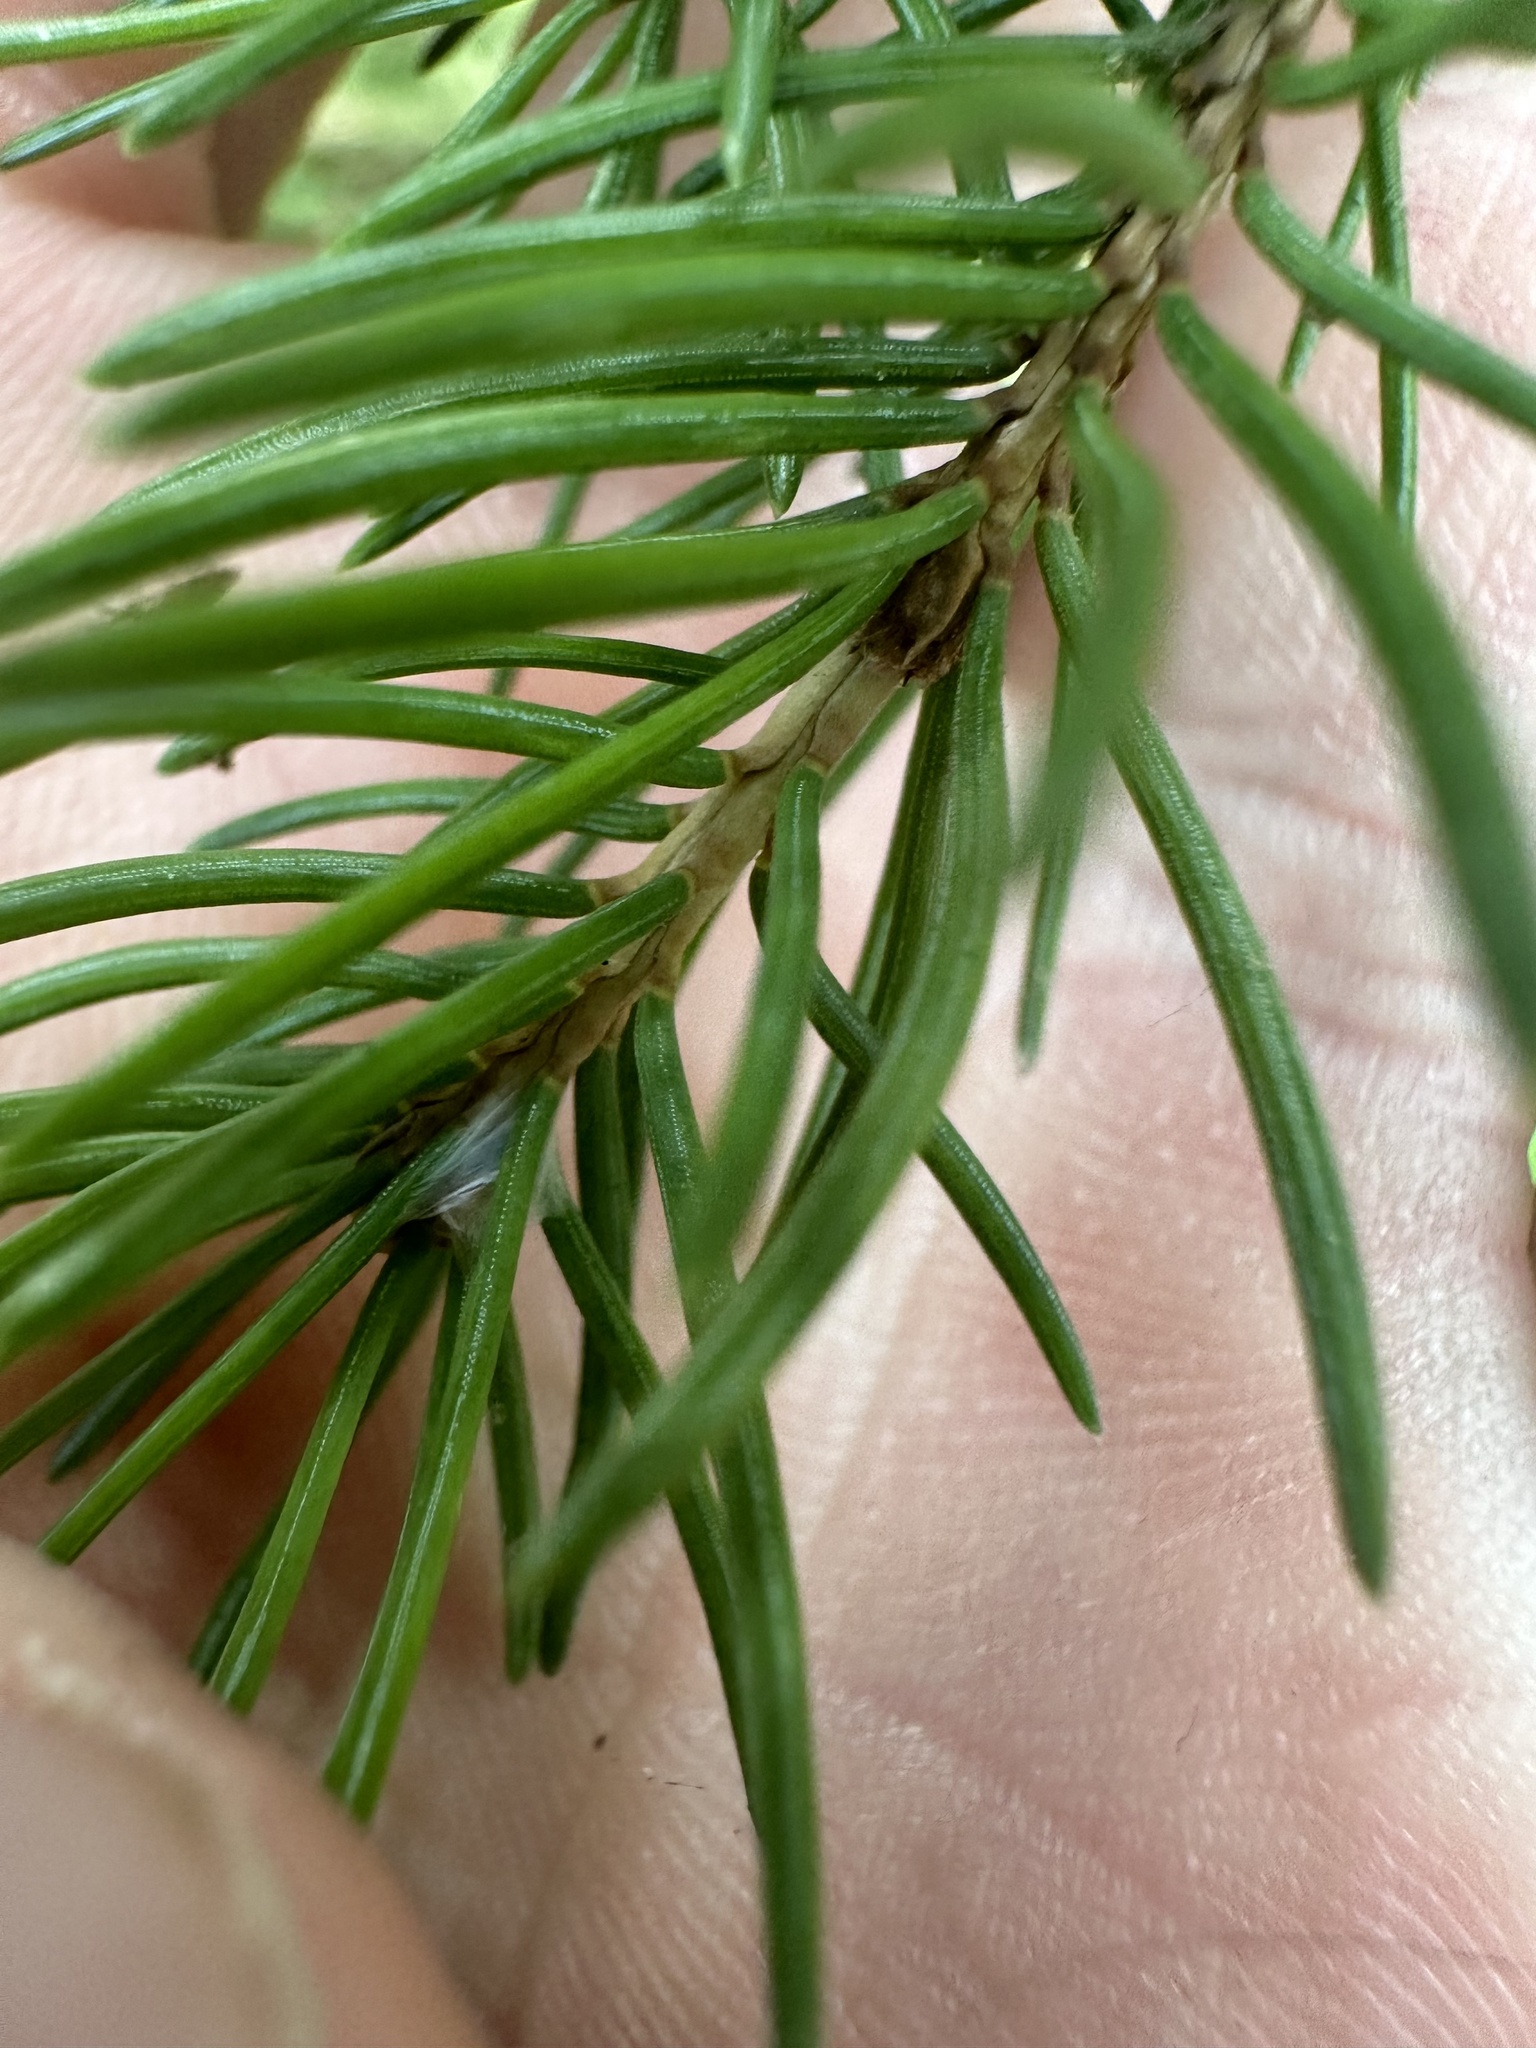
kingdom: Plantae
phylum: Tracheophyta
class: Pinopsida
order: Pinales
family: Pinaceae
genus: Picea
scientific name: Picea glauca
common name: White spruce
